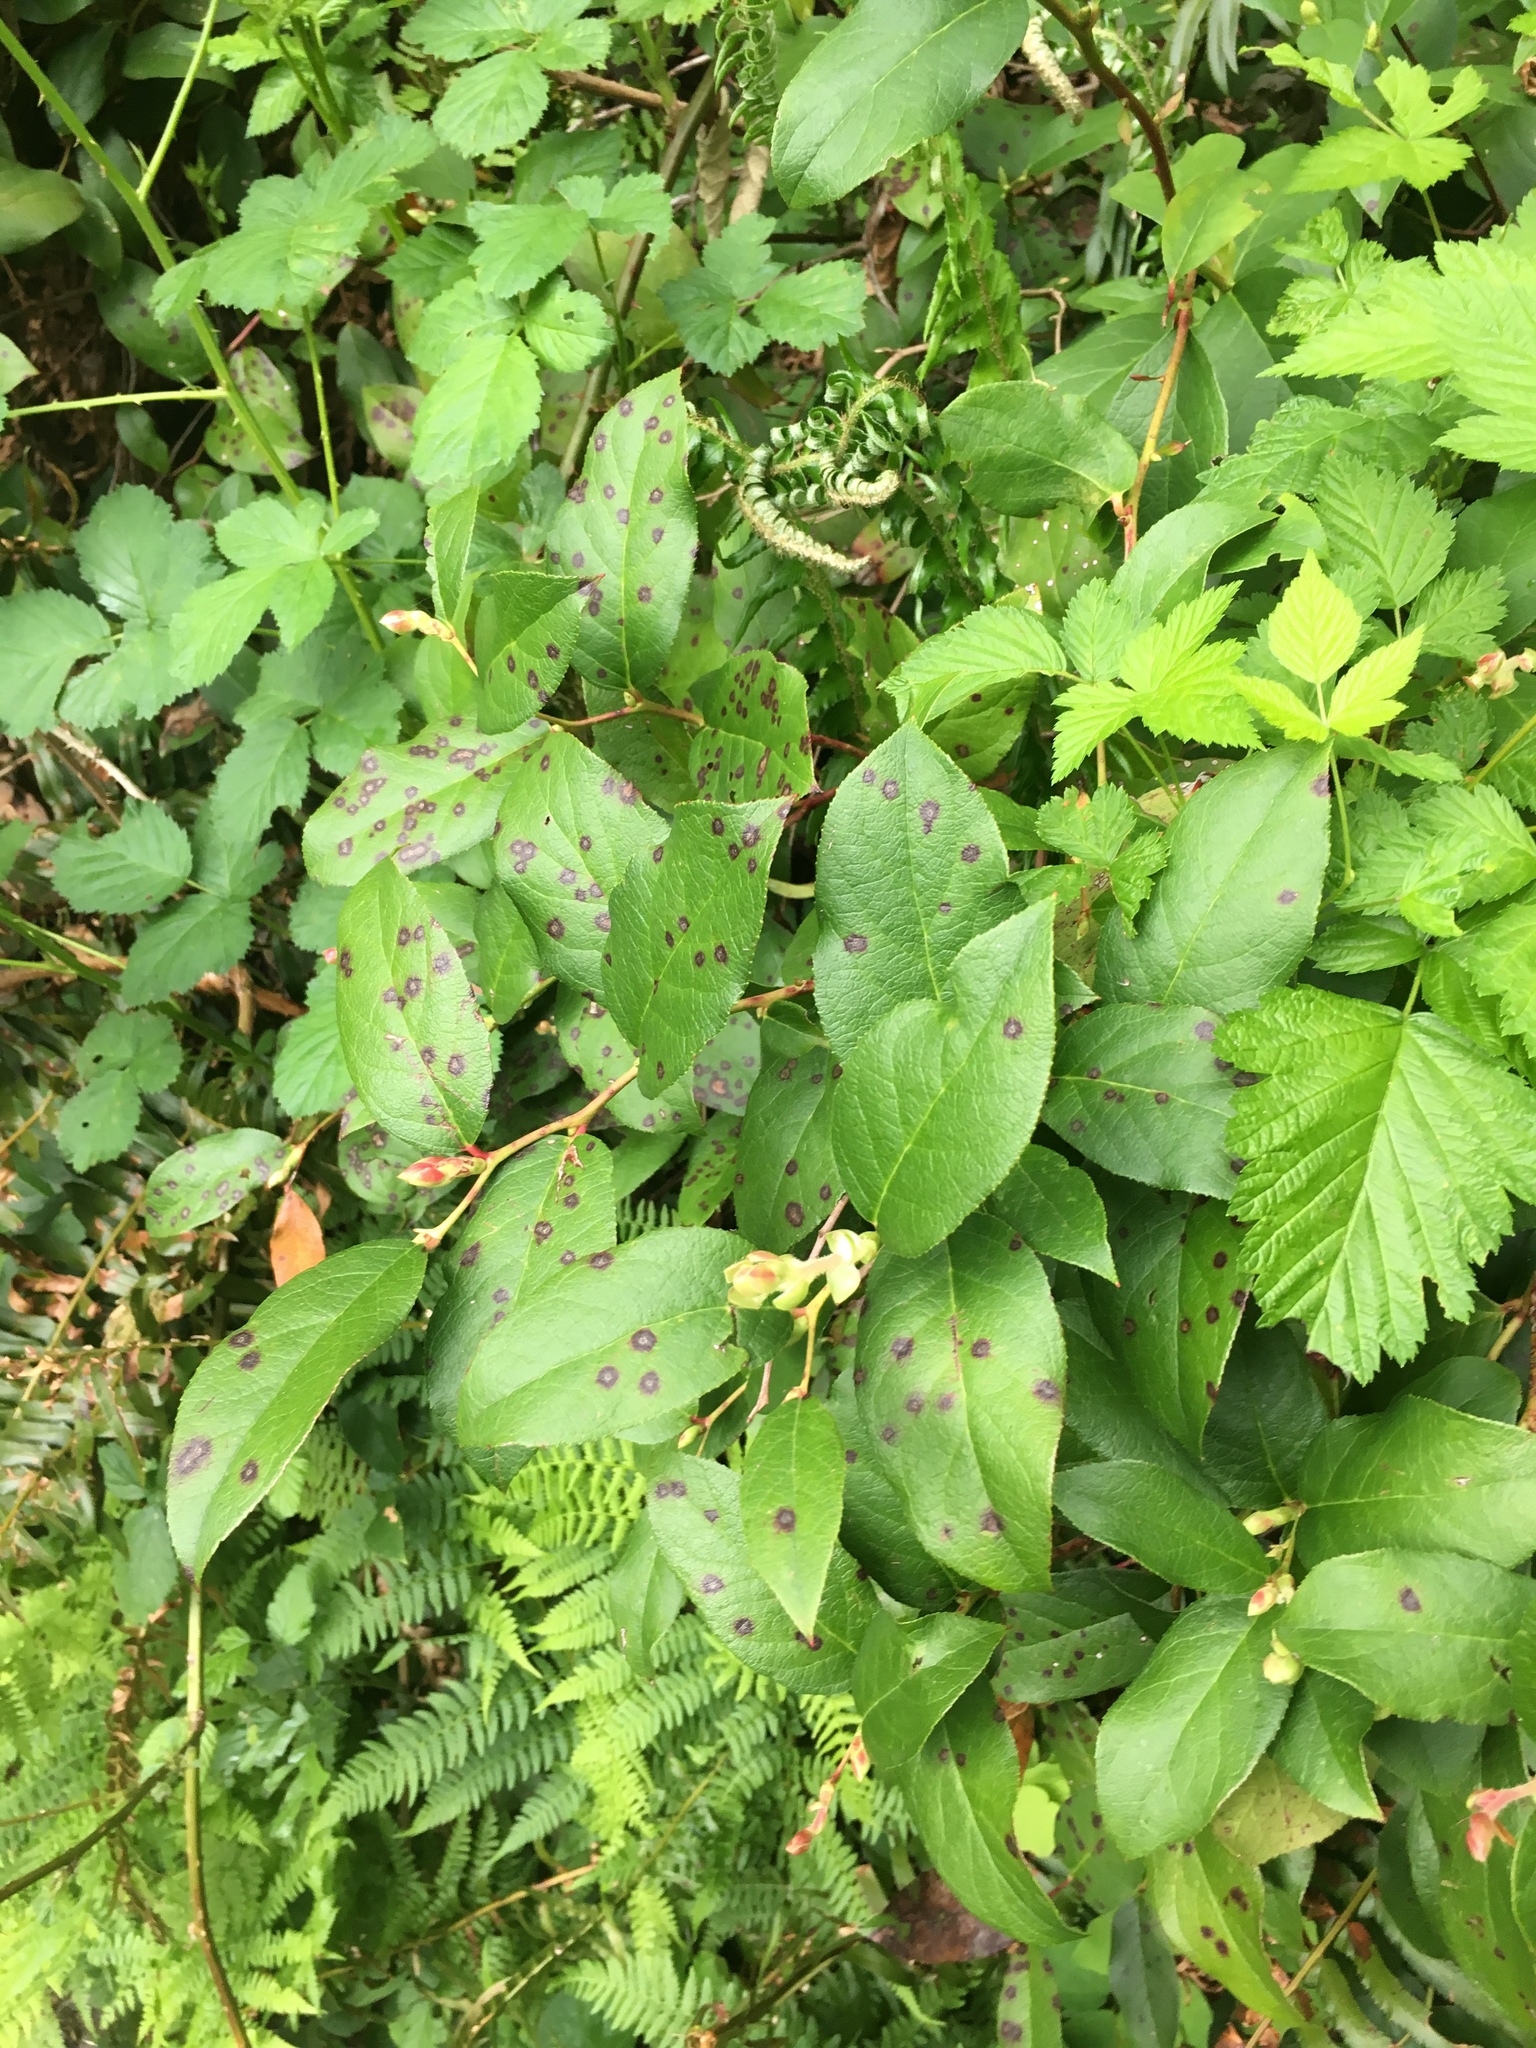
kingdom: Plantae
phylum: Tracheophyta
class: Magnoliopsida
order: Ericales
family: Ericaceae
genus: Gaultheria
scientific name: Gaultheria shallon
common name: Shallon
